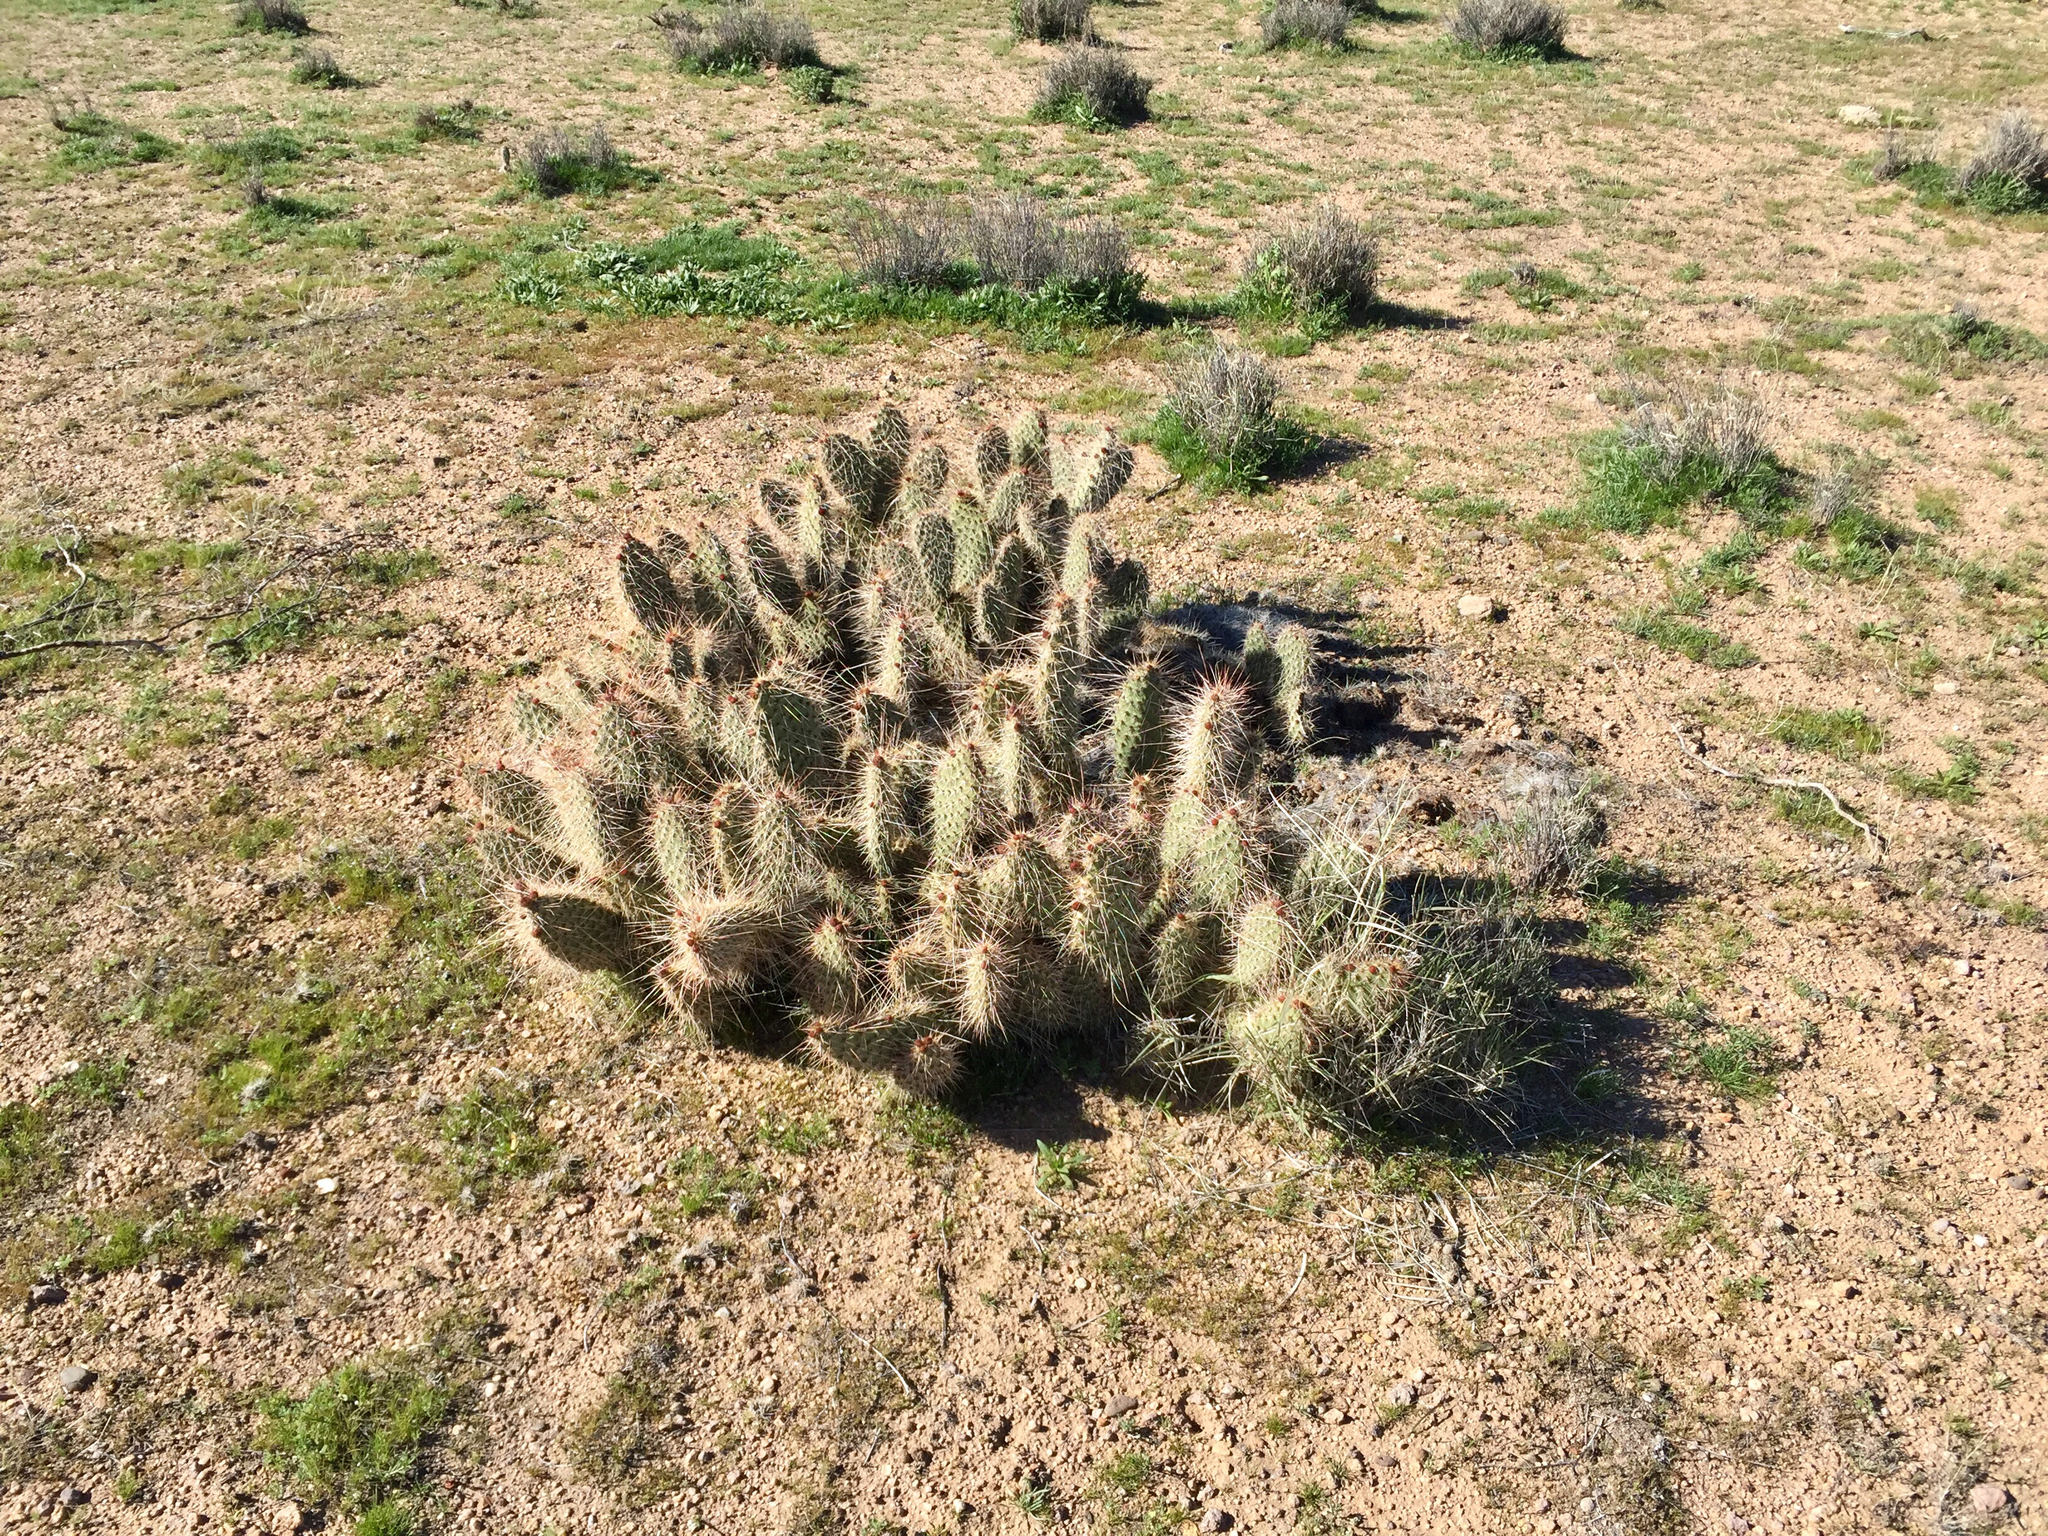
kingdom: Plantae
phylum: Tracheophyta
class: Magnoliopsida
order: Caryophyllales
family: Cactaceae
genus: Opuntia
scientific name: Opuntia polyacantha
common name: Plains prickly-pear
